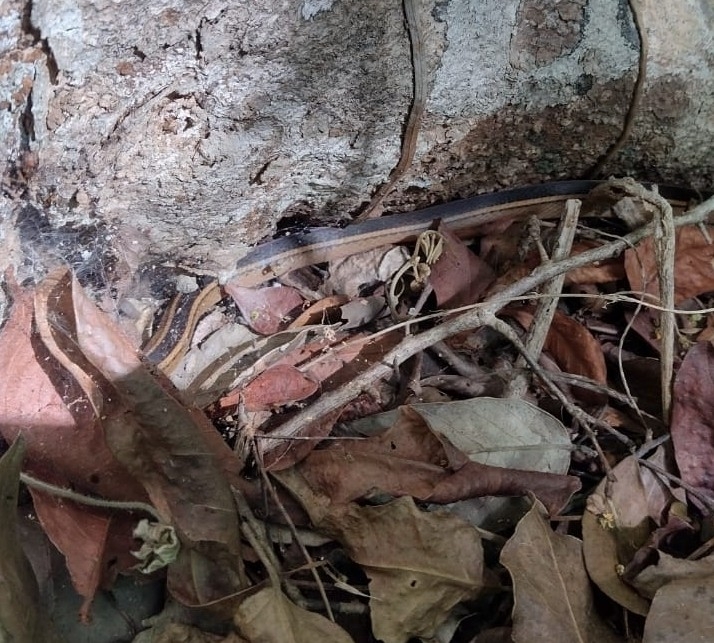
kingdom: Animalia
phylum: Chordata
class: Squamata
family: Colubridae
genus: Coniophanes
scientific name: Coniophanes schmidti
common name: Faded black-striped snake
